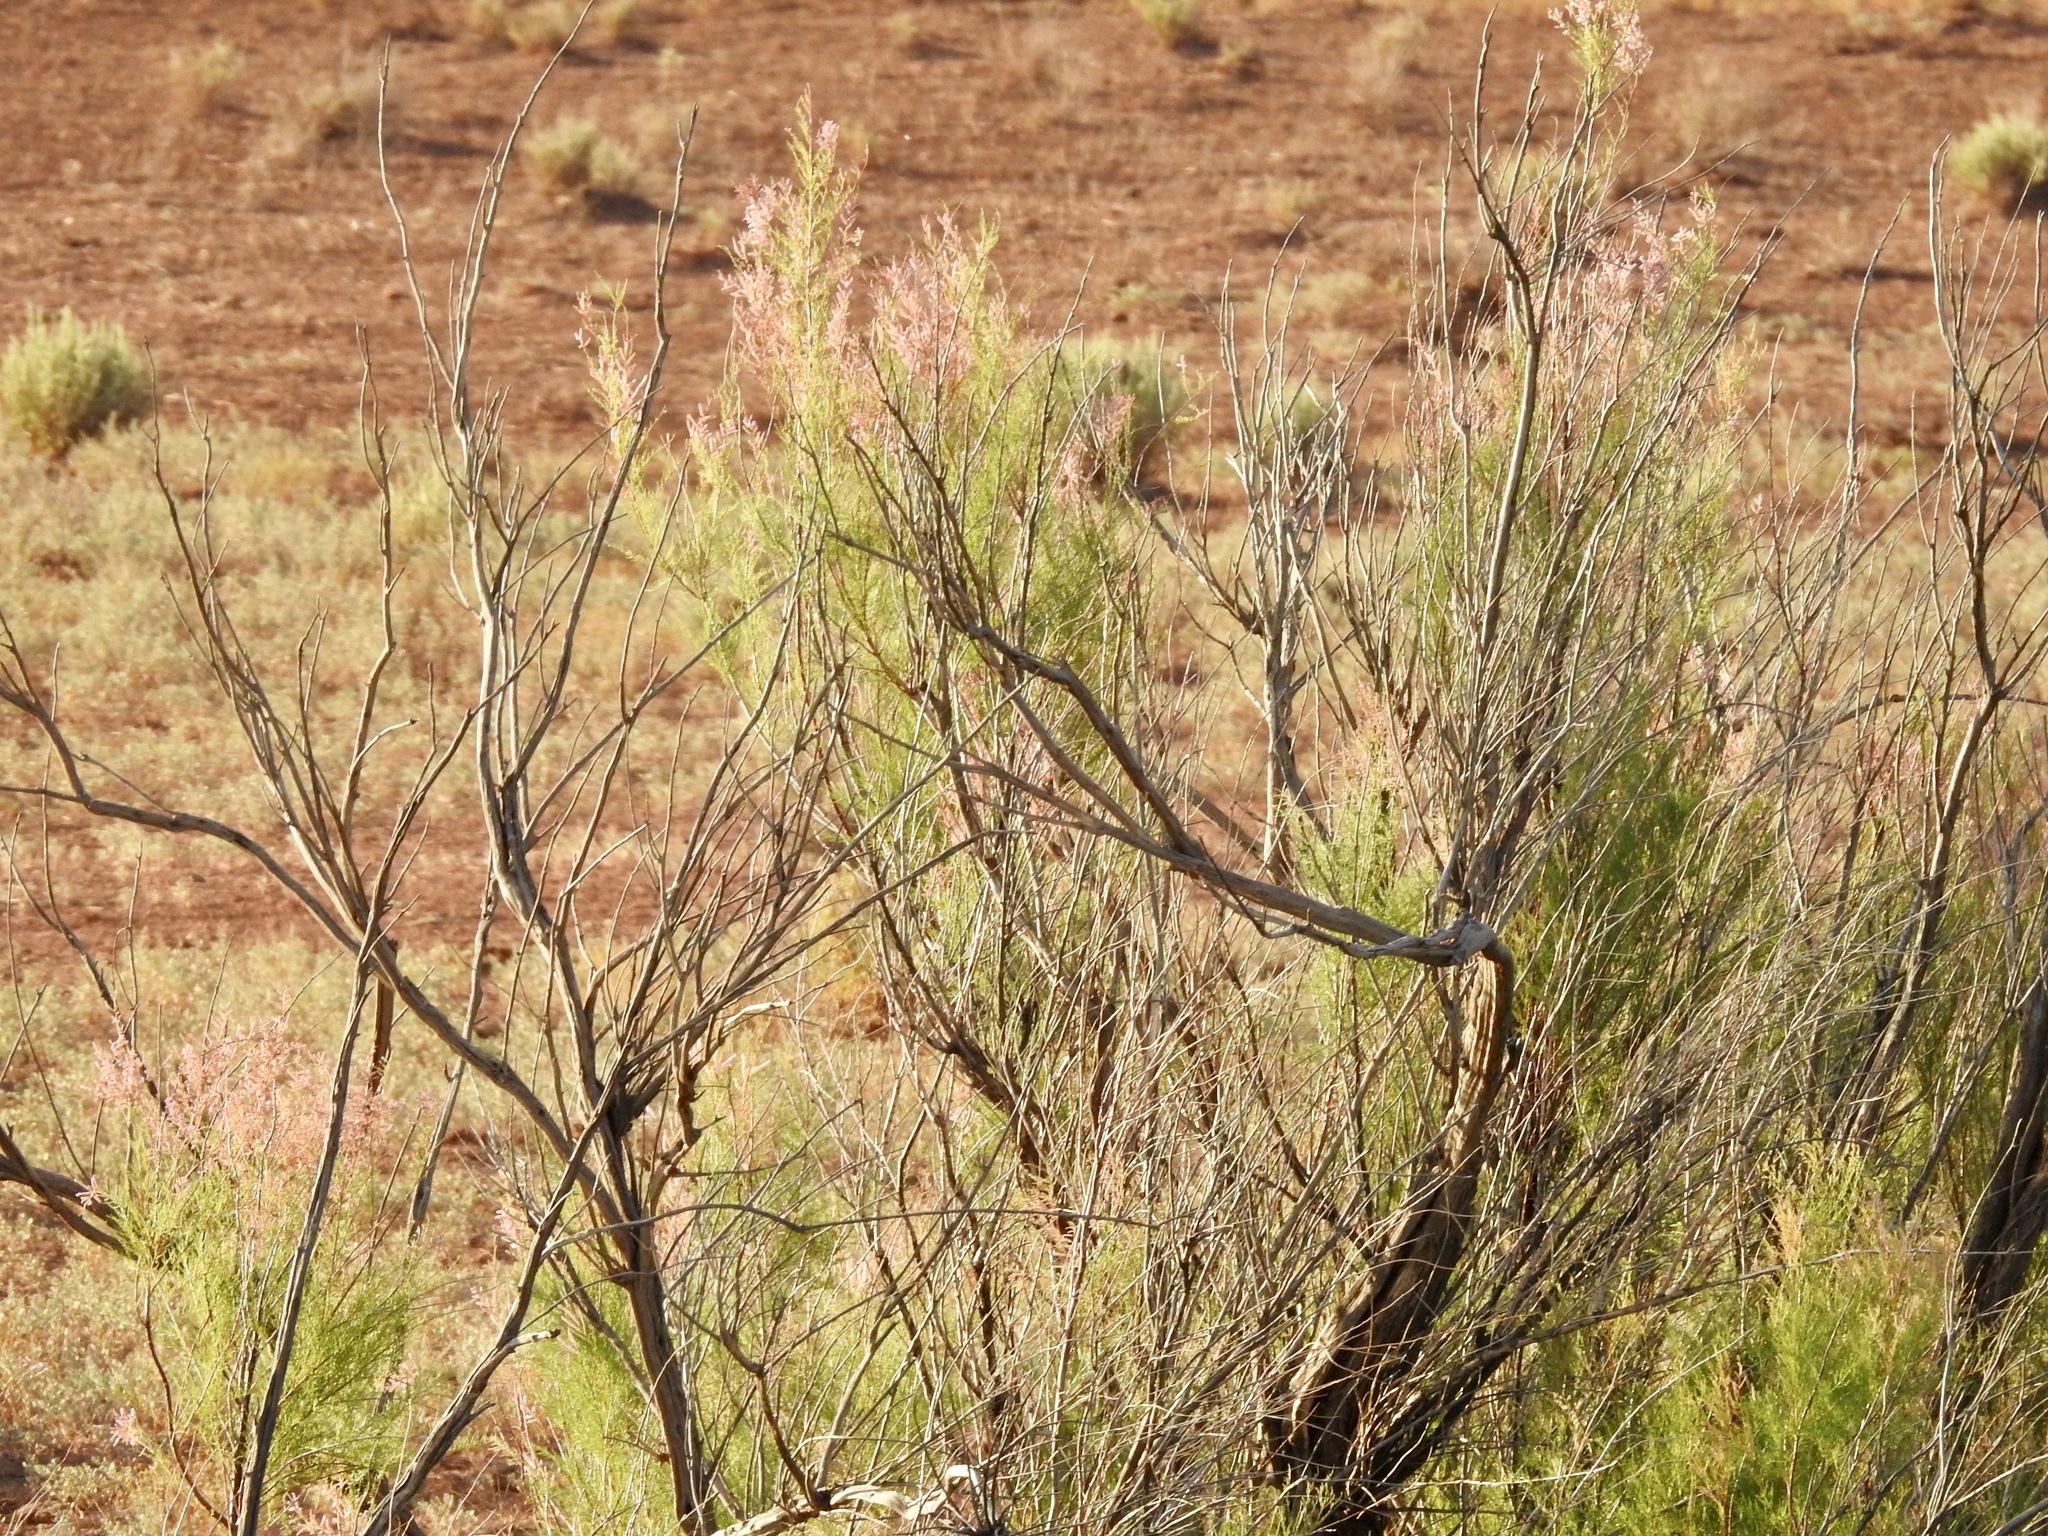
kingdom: Plantae
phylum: Tracheophyta
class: Magnoliopsida
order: Caryophyllales
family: Tamaricaceae
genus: Tamarix
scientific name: Tamarix
